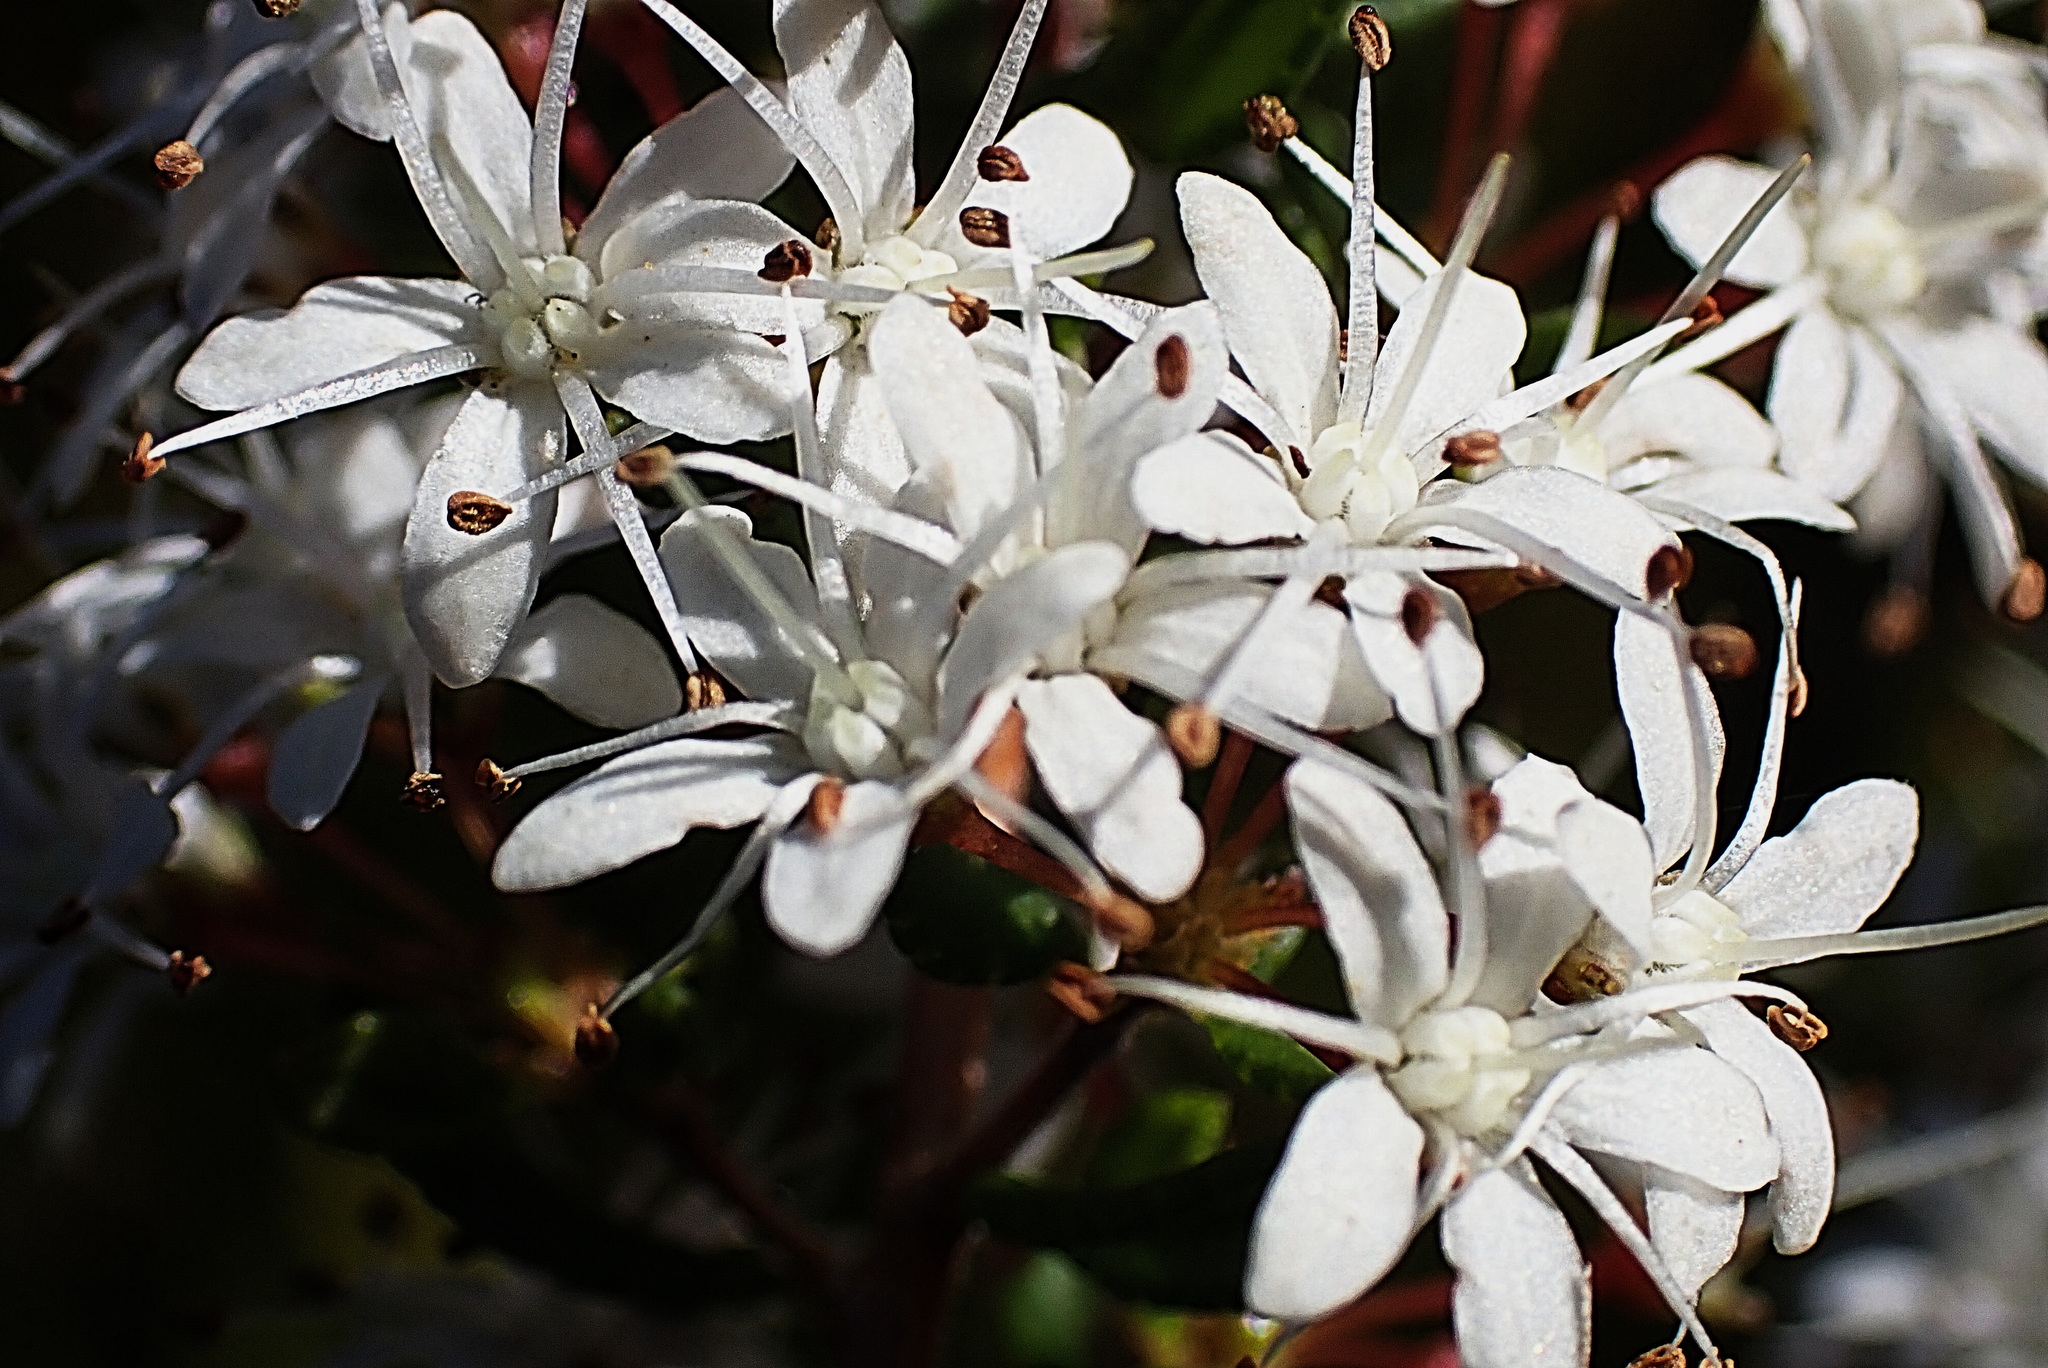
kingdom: Plantae
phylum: Tracheophyta
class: Magnoliopsida
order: Sapindales
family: Rutaceae
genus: Agathosma
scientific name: Agathosma mundtii
